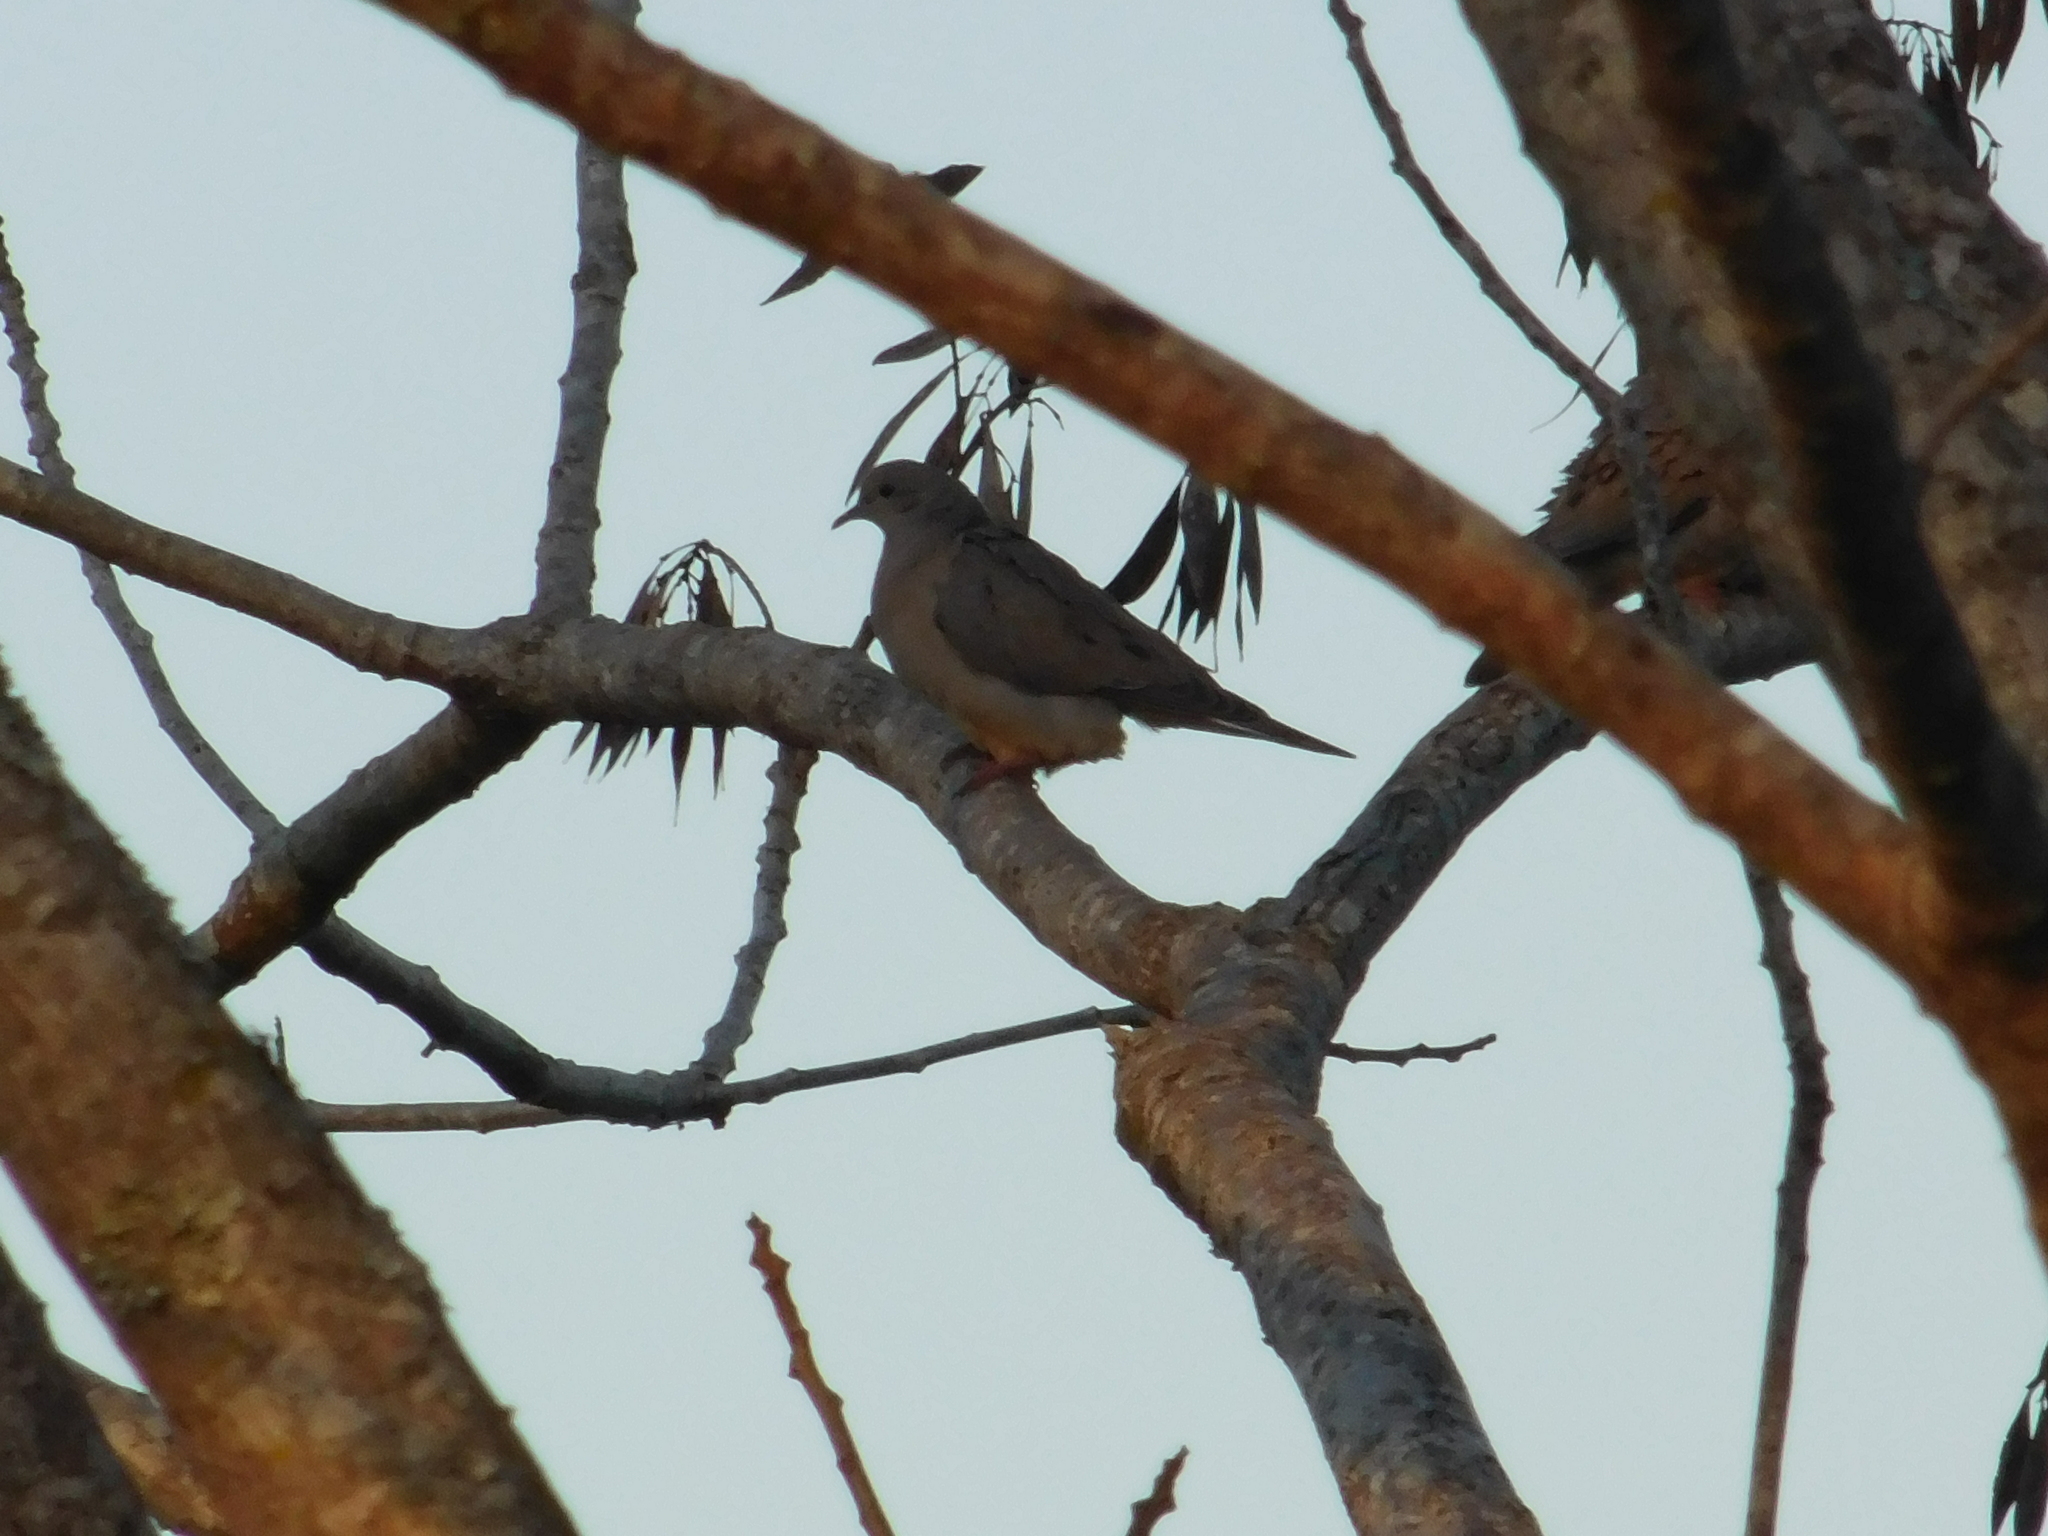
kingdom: Animalia
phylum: Chordata
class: Aves
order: Columbiformes
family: Columbidae
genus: Zenaida
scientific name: Zenaida auriculata
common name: Eared dove
